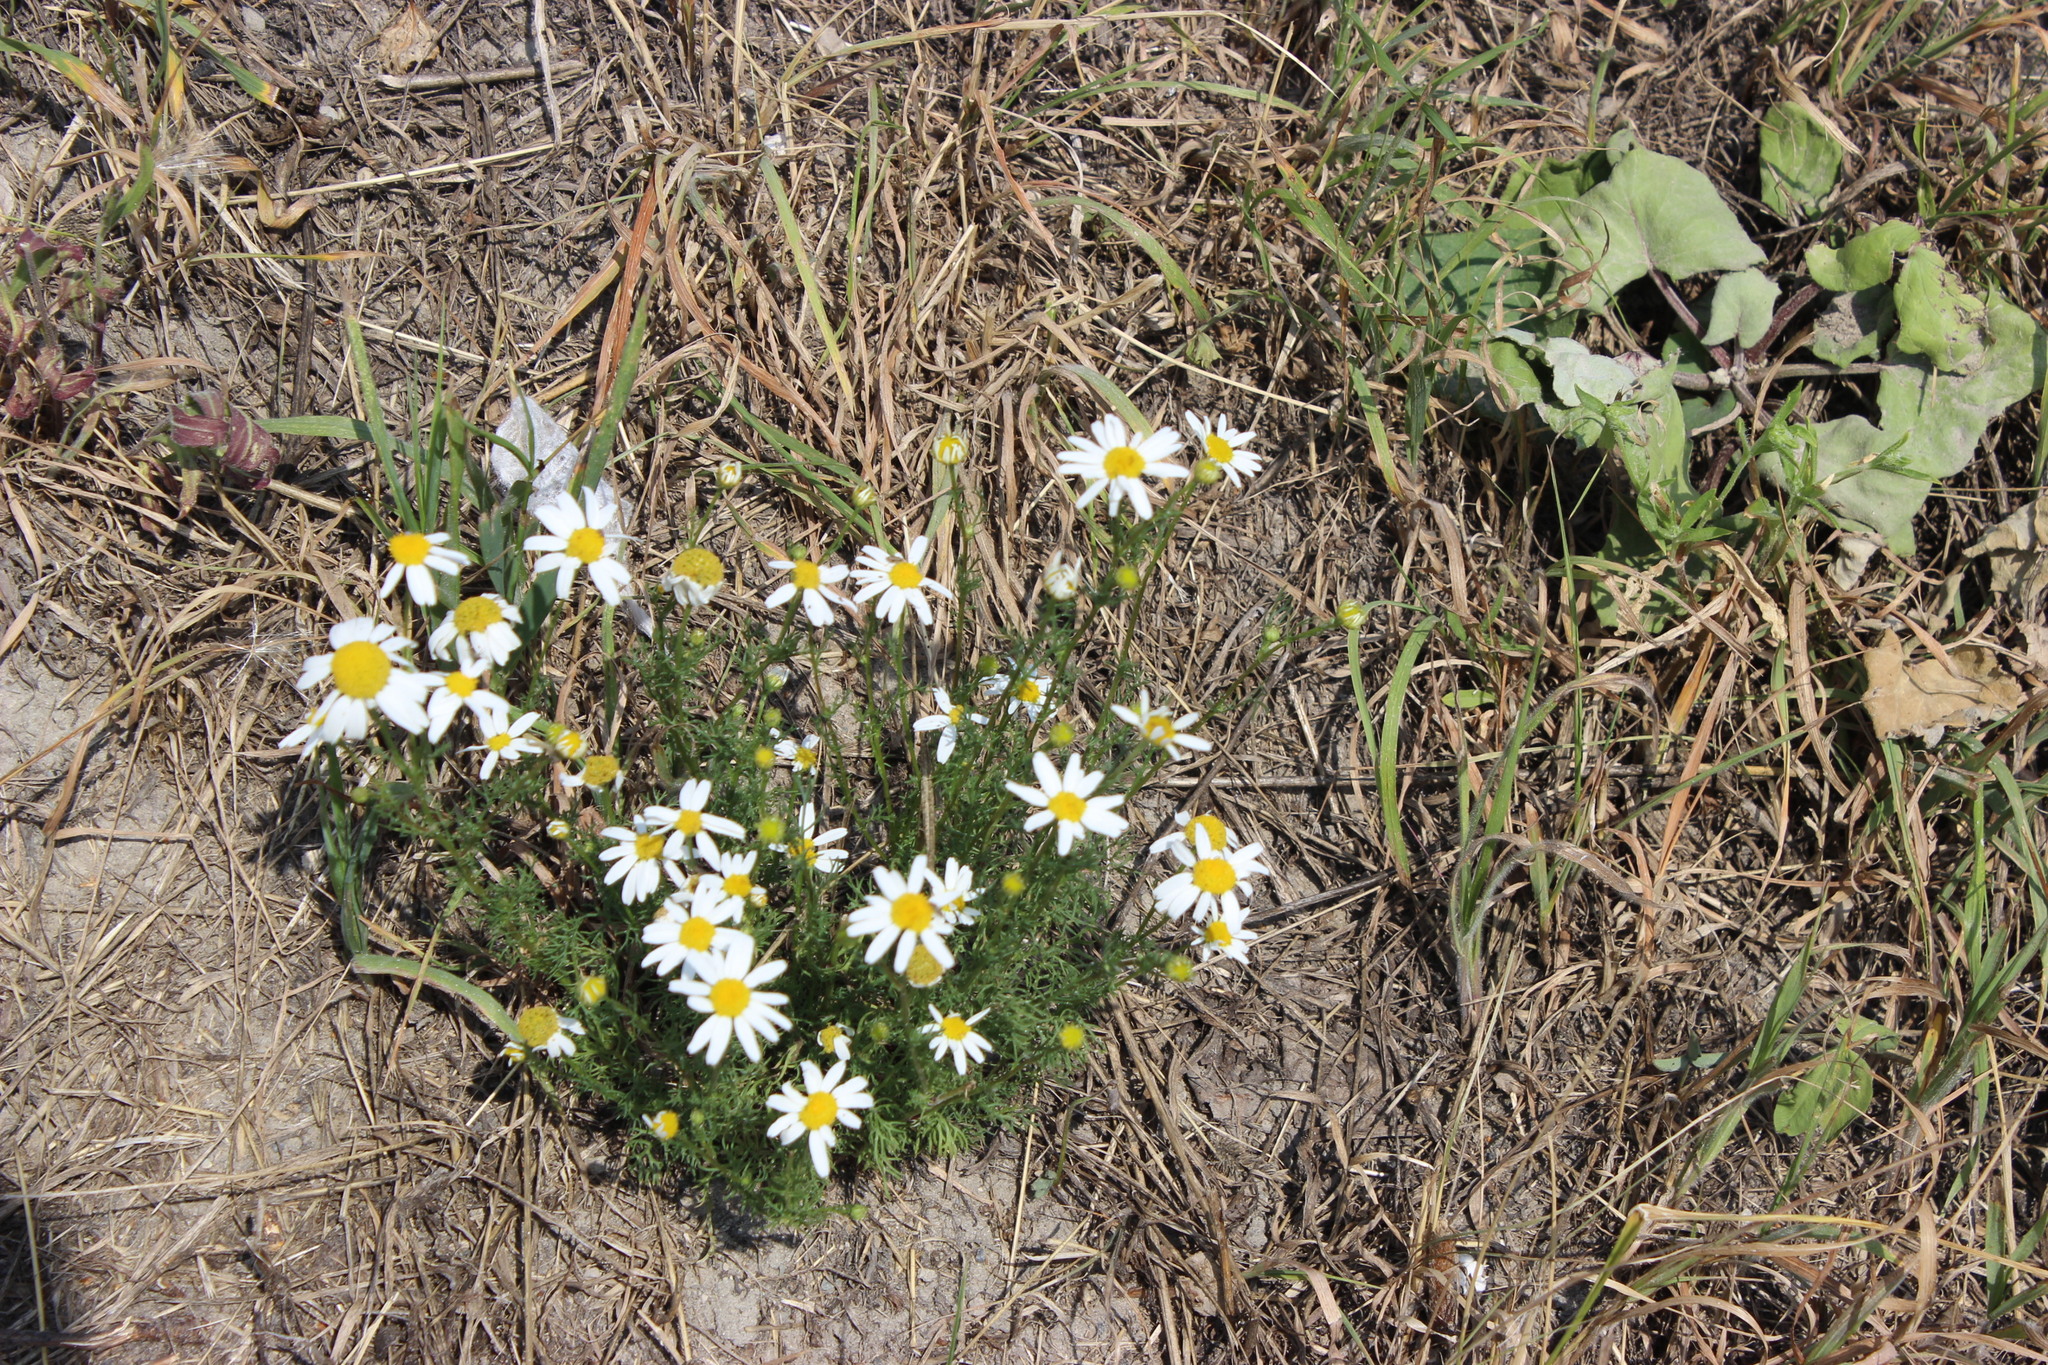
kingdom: Plantae
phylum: Tracheophyta
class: Magnoliopsida
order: Asterales
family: Asteraceae
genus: Tripleurospermum
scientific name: Tripleurospermum inodorum
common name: Scentless mayweed
